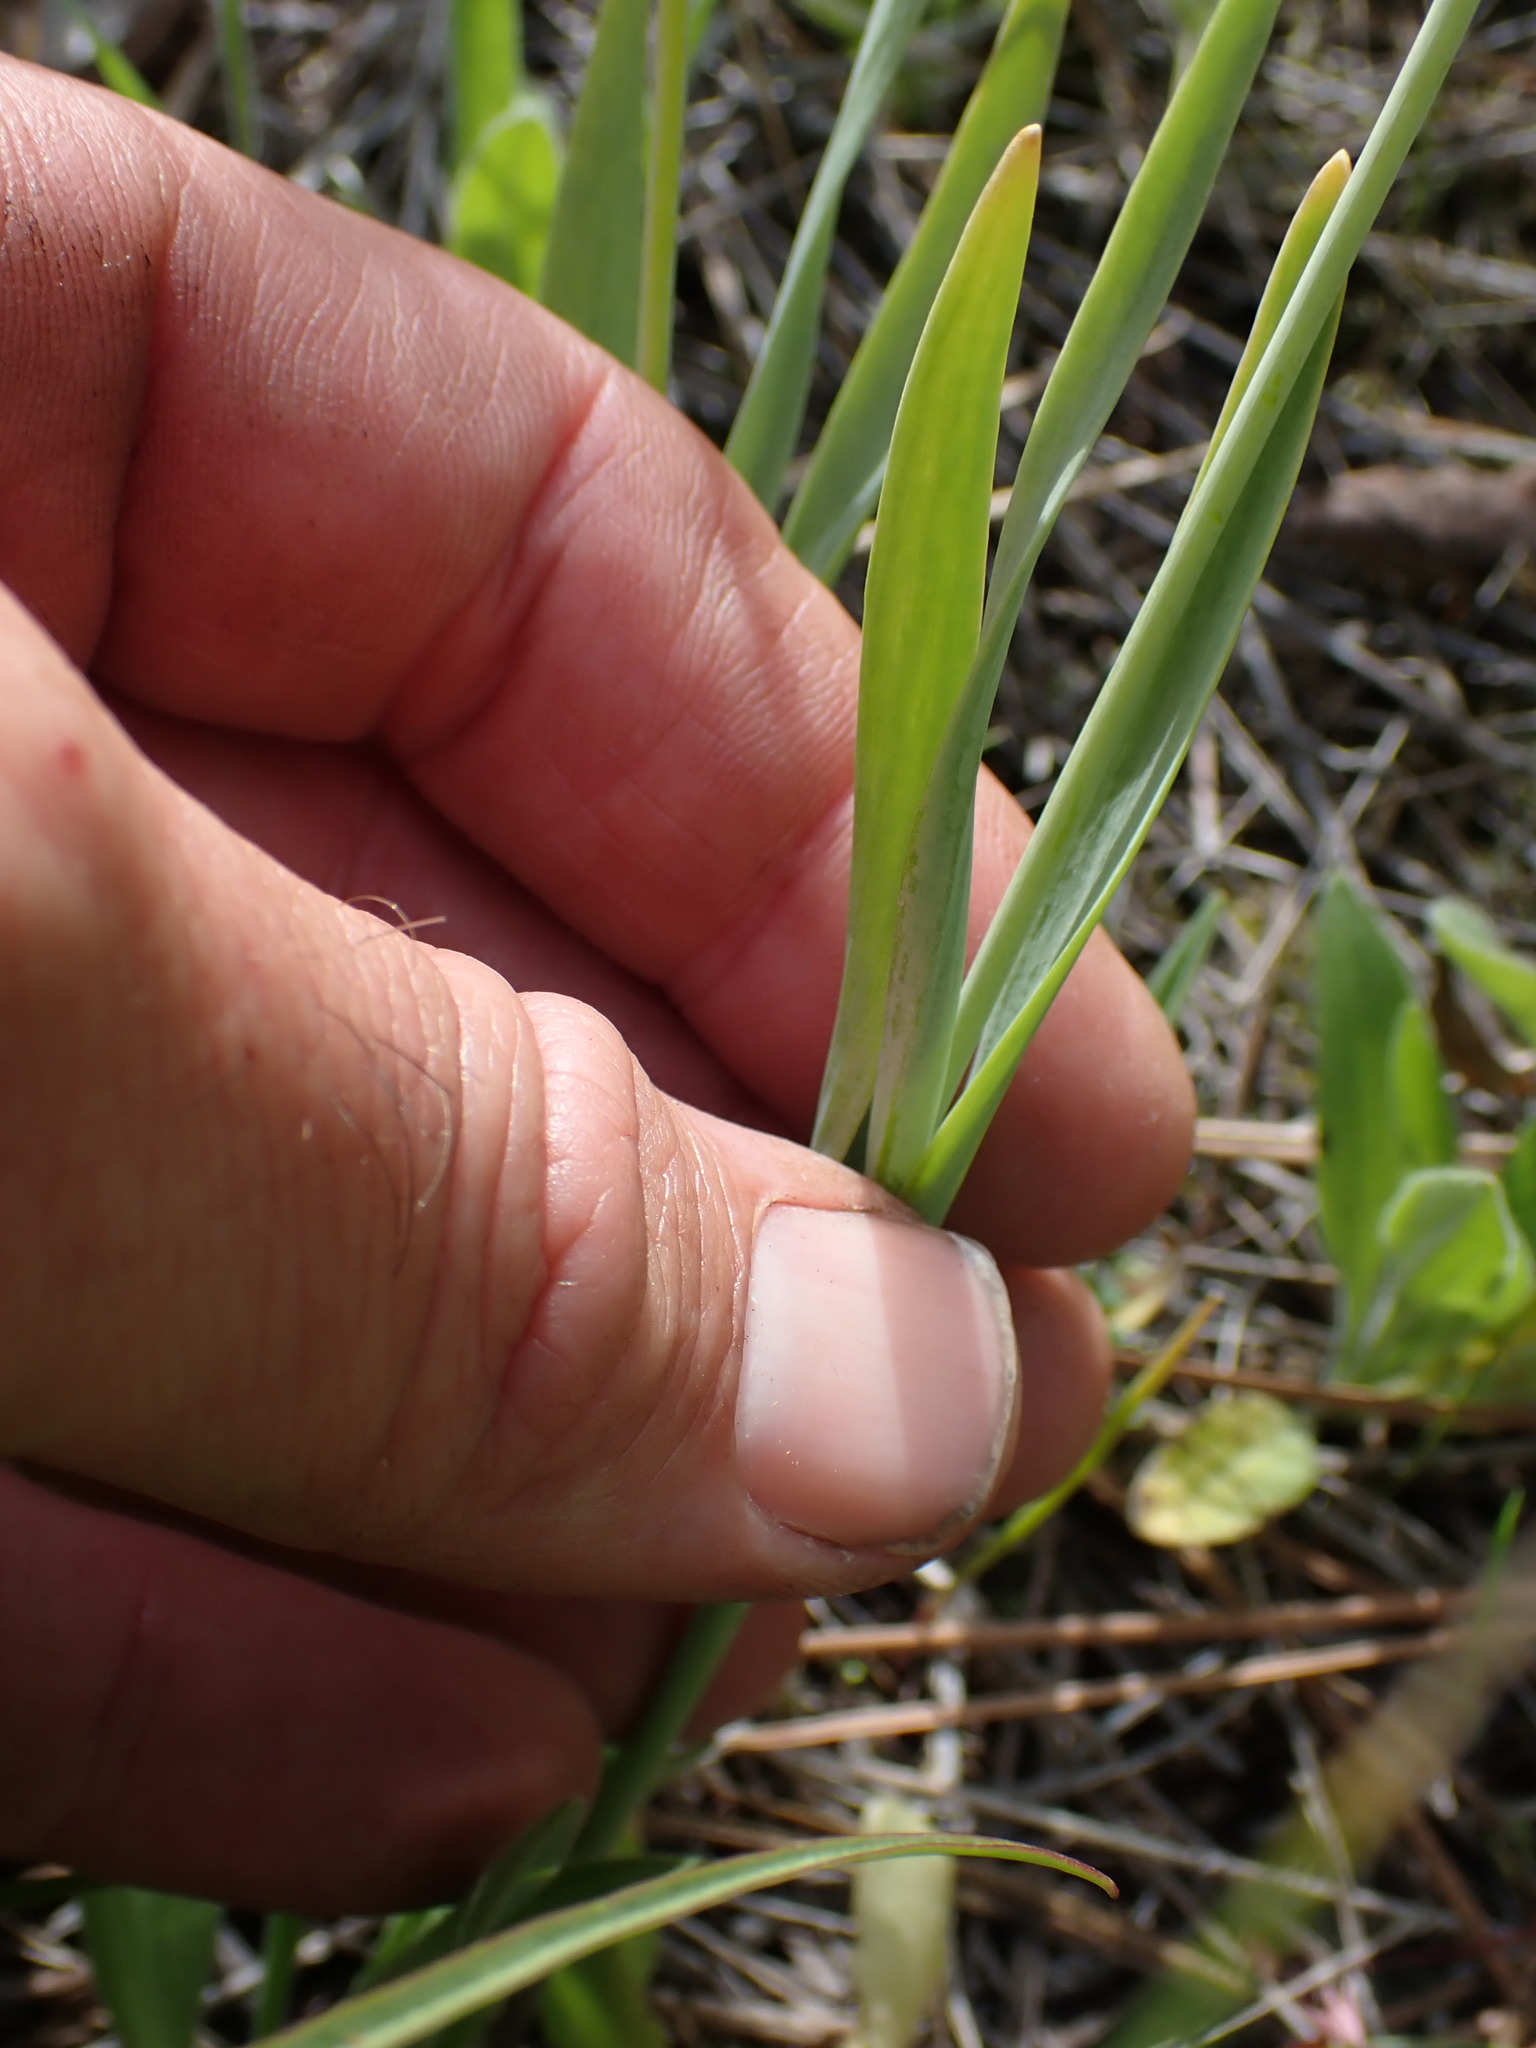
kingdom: Plantae
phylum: Tracheophyta
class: Liliopsida
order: Liliales
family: Liliaceae
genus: Fritillaria
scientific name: Fritillaria pudica
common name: Yellow fritillary
